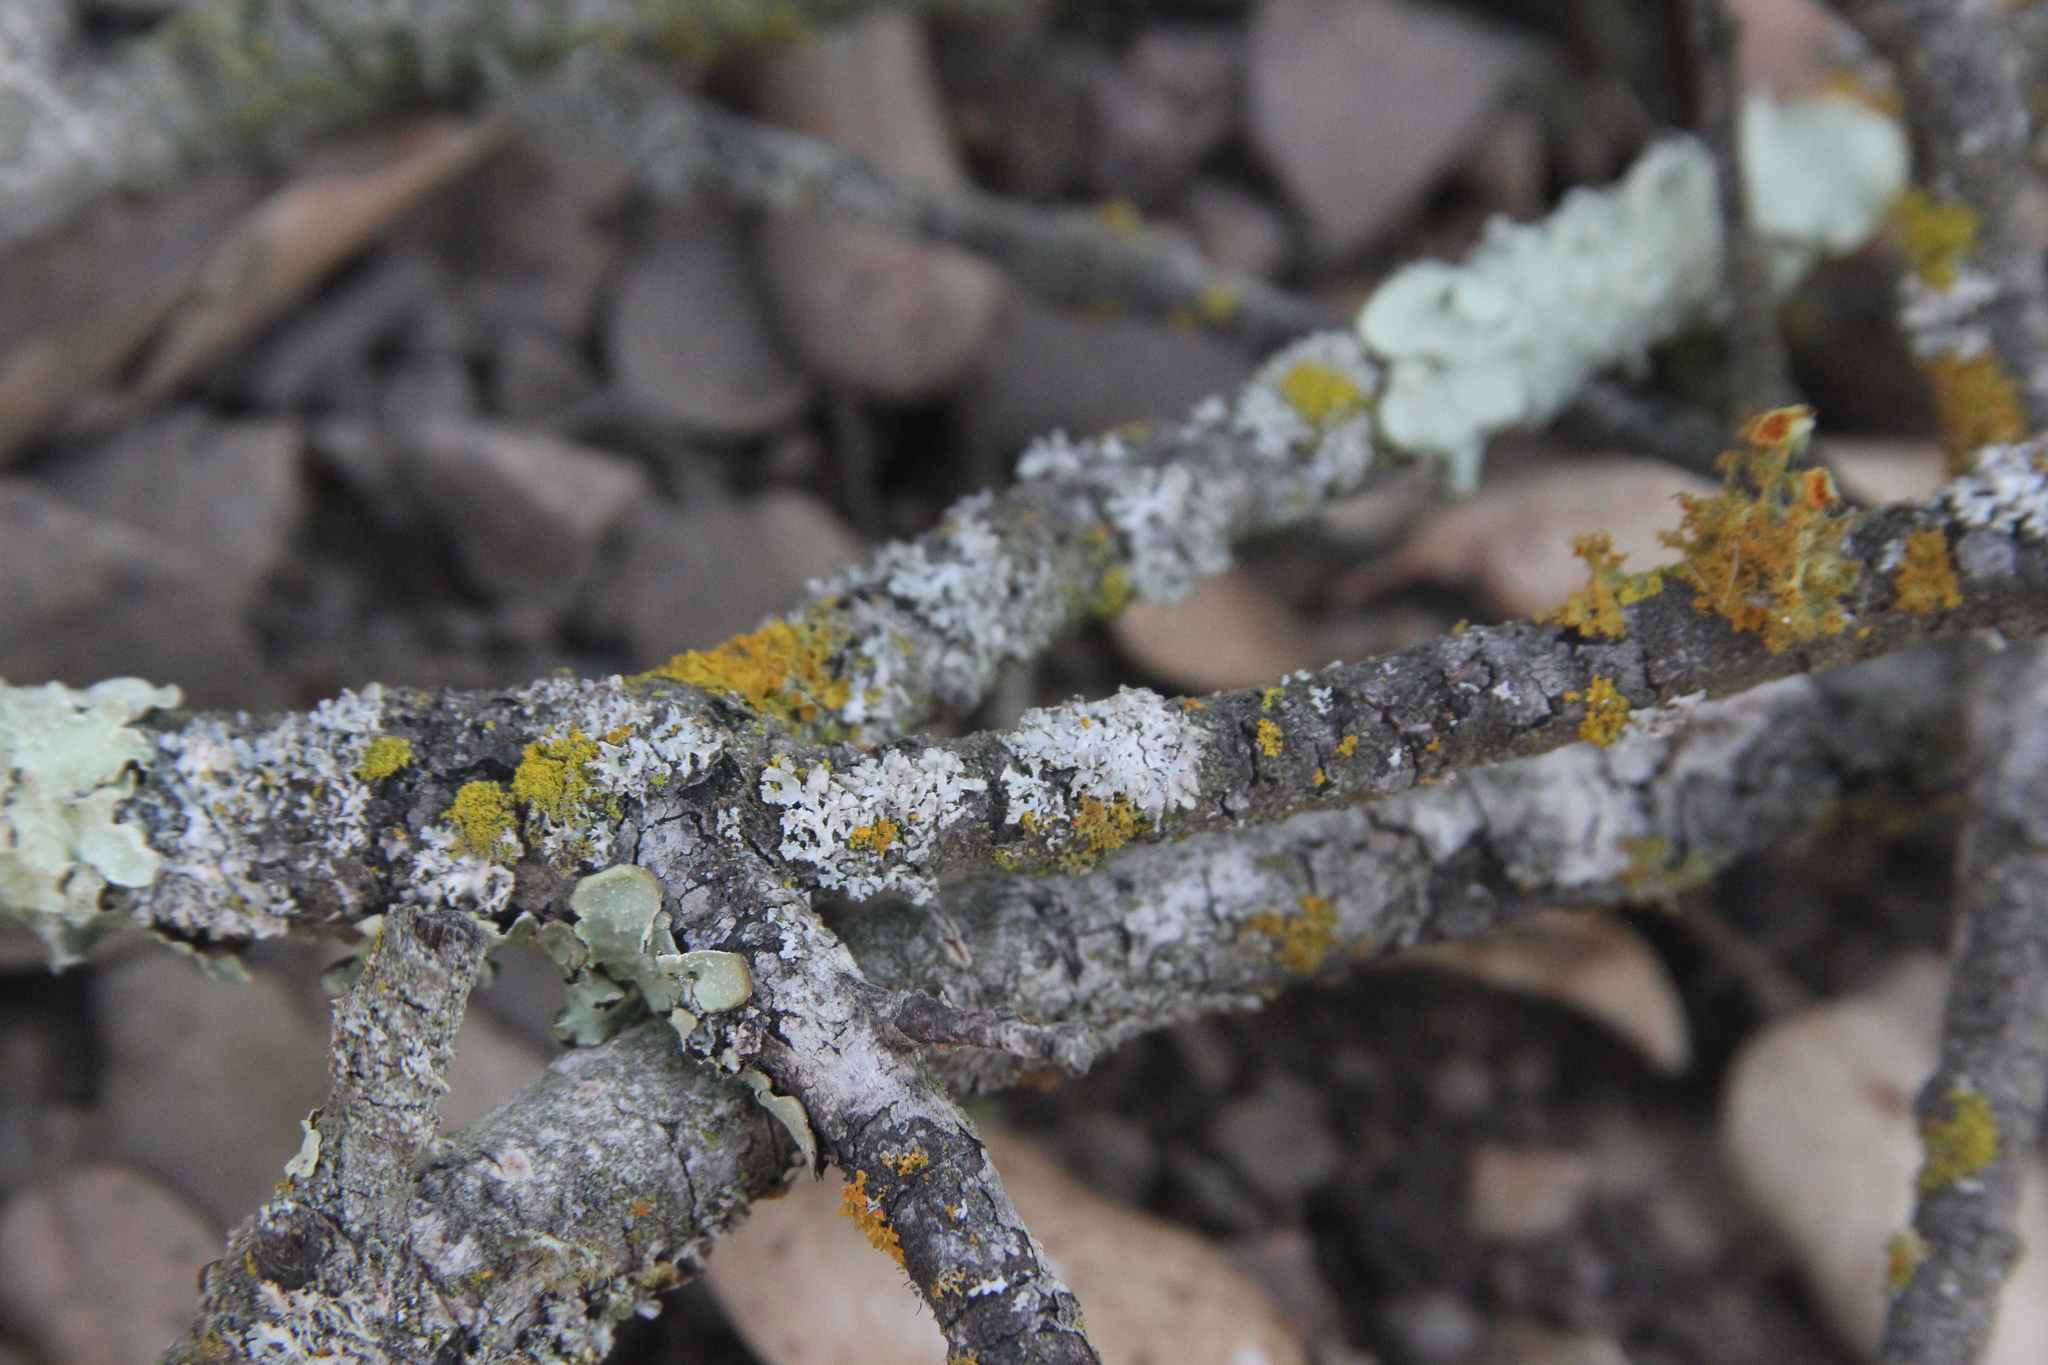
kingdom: Fungi
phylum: Ascomycota
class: Lecanoromycetes
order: Teloschistales
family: Teloschistaceae
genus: Niorma
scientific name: Niorma chrysophthalma
